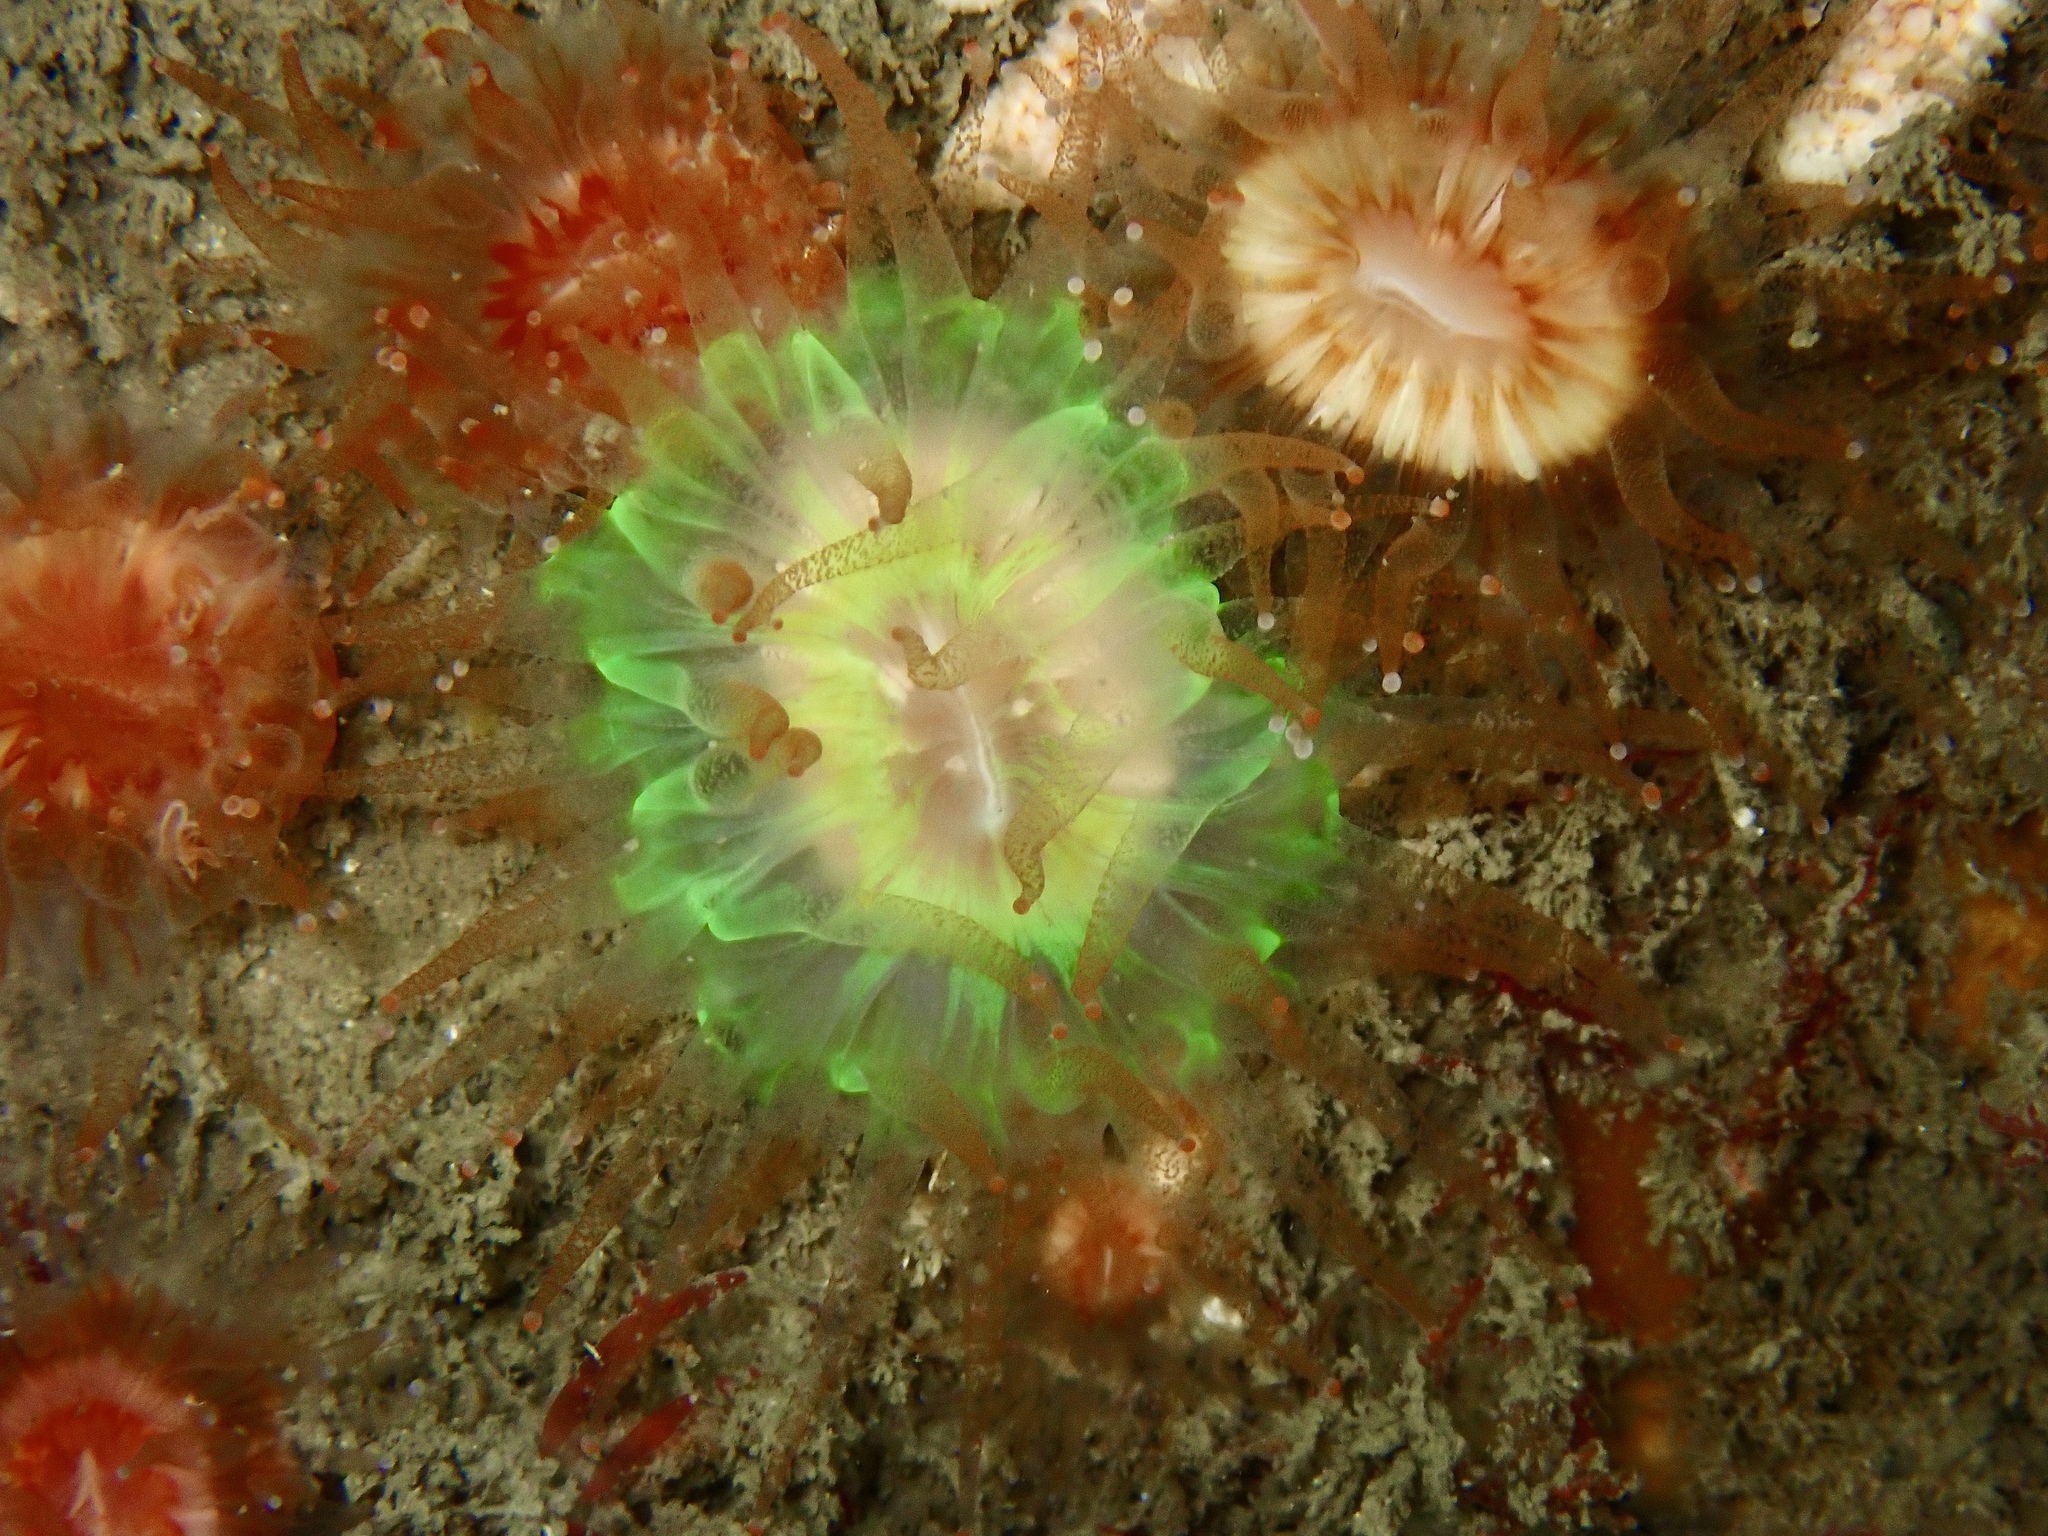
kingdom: Animalia
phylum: Cnidaria
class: Anthozoa
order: Scleractinia
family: Caryophylliidae
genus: Caryophyllia
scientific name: Caryophyllia smithii
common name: Devonshire cup coral
